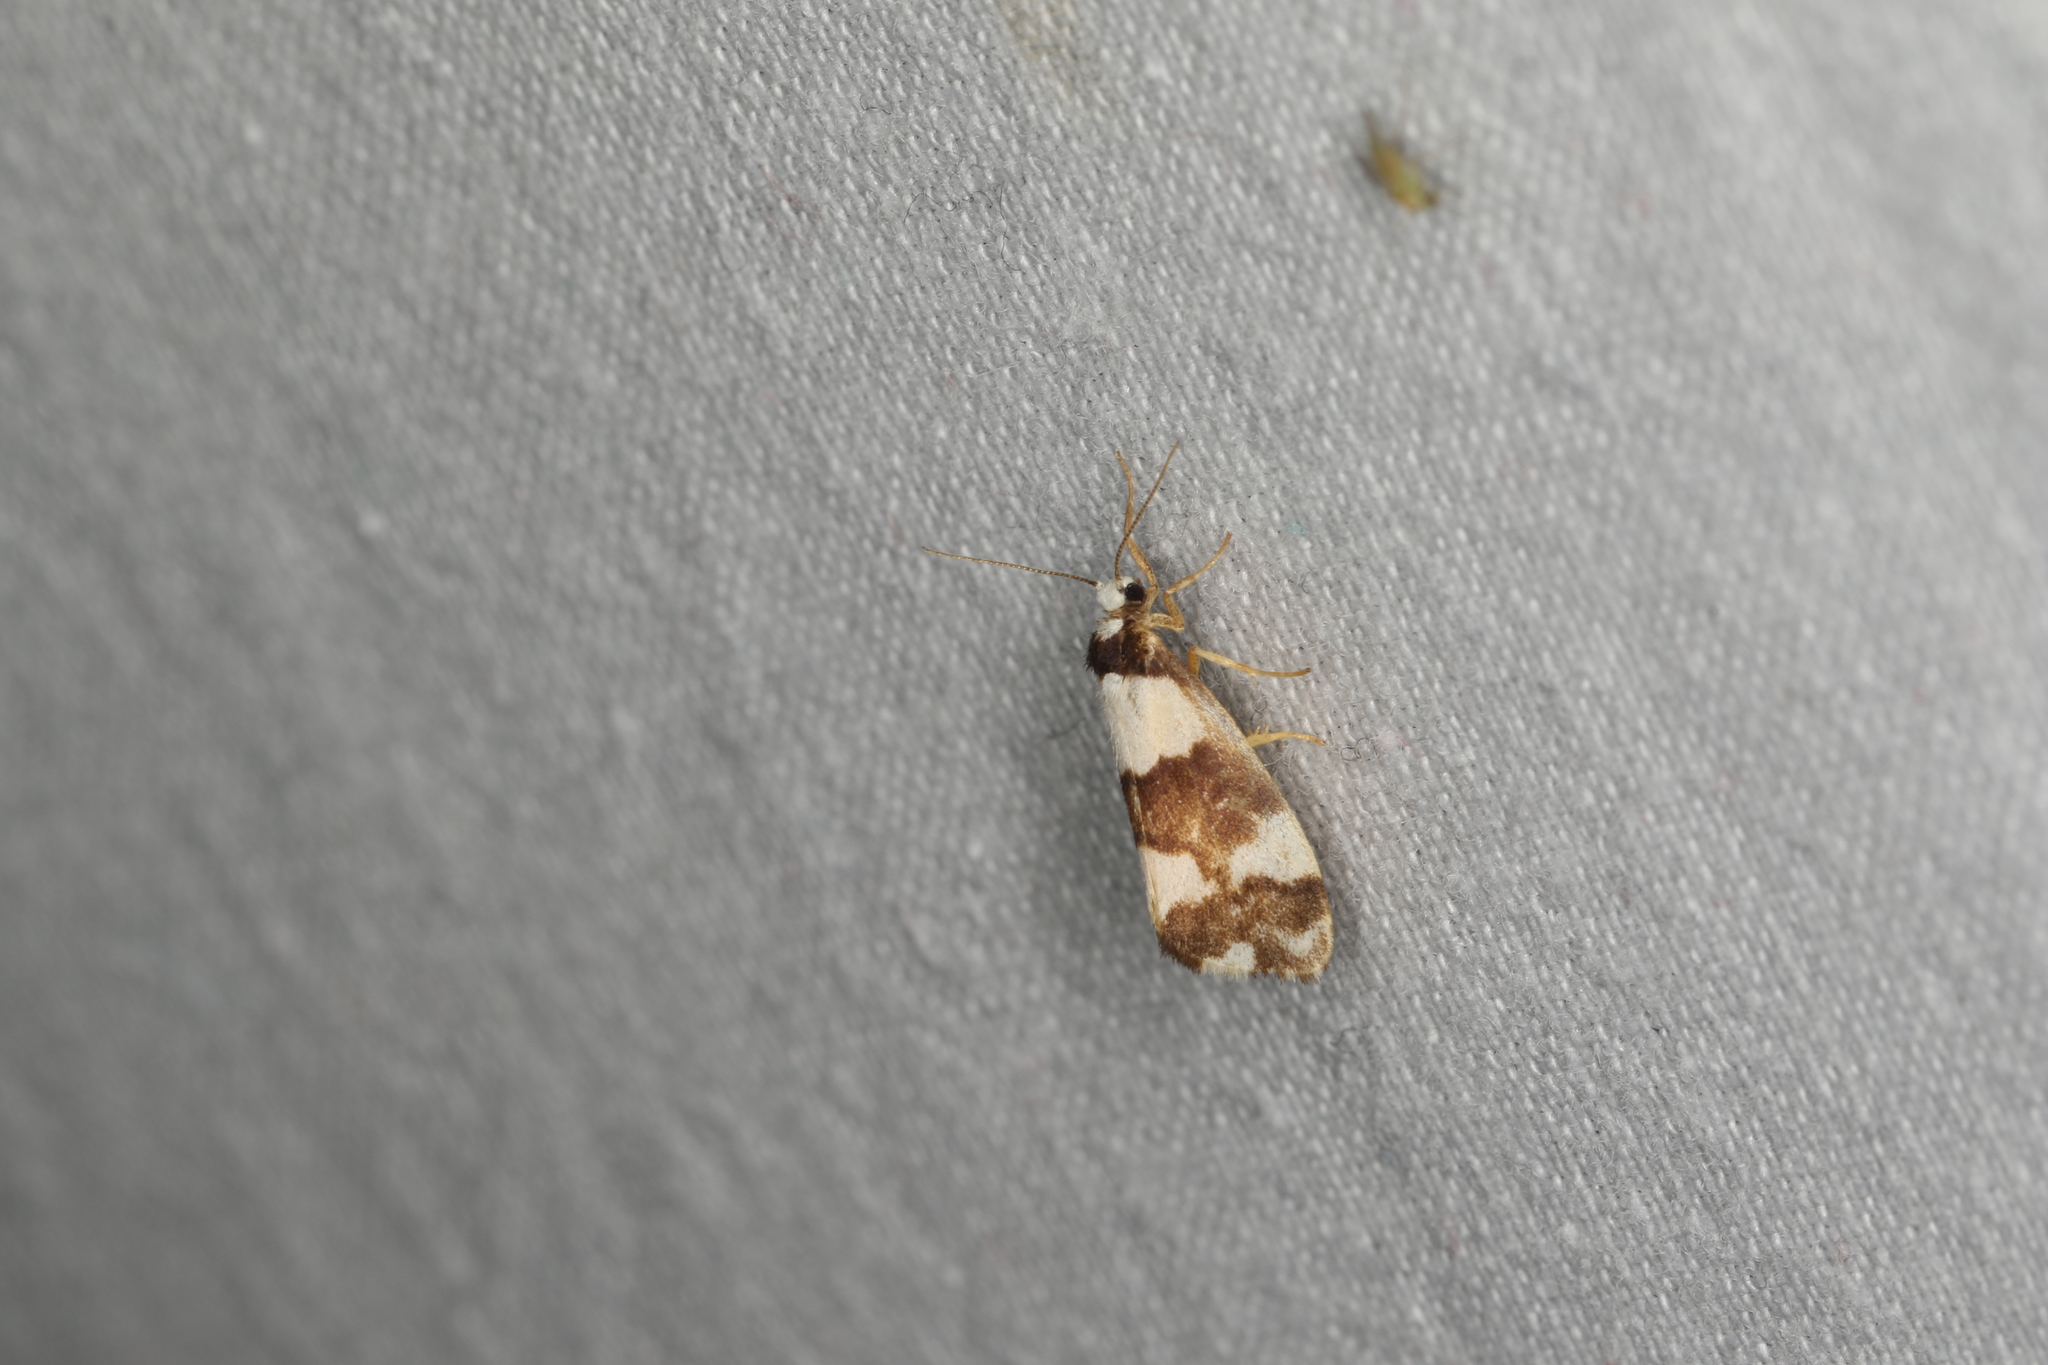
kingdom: Animalia
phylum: Arthropoda
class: Insecta
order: Lepidoptera
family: Erebidae
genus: Philenora
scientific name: Philenora aspectalella
